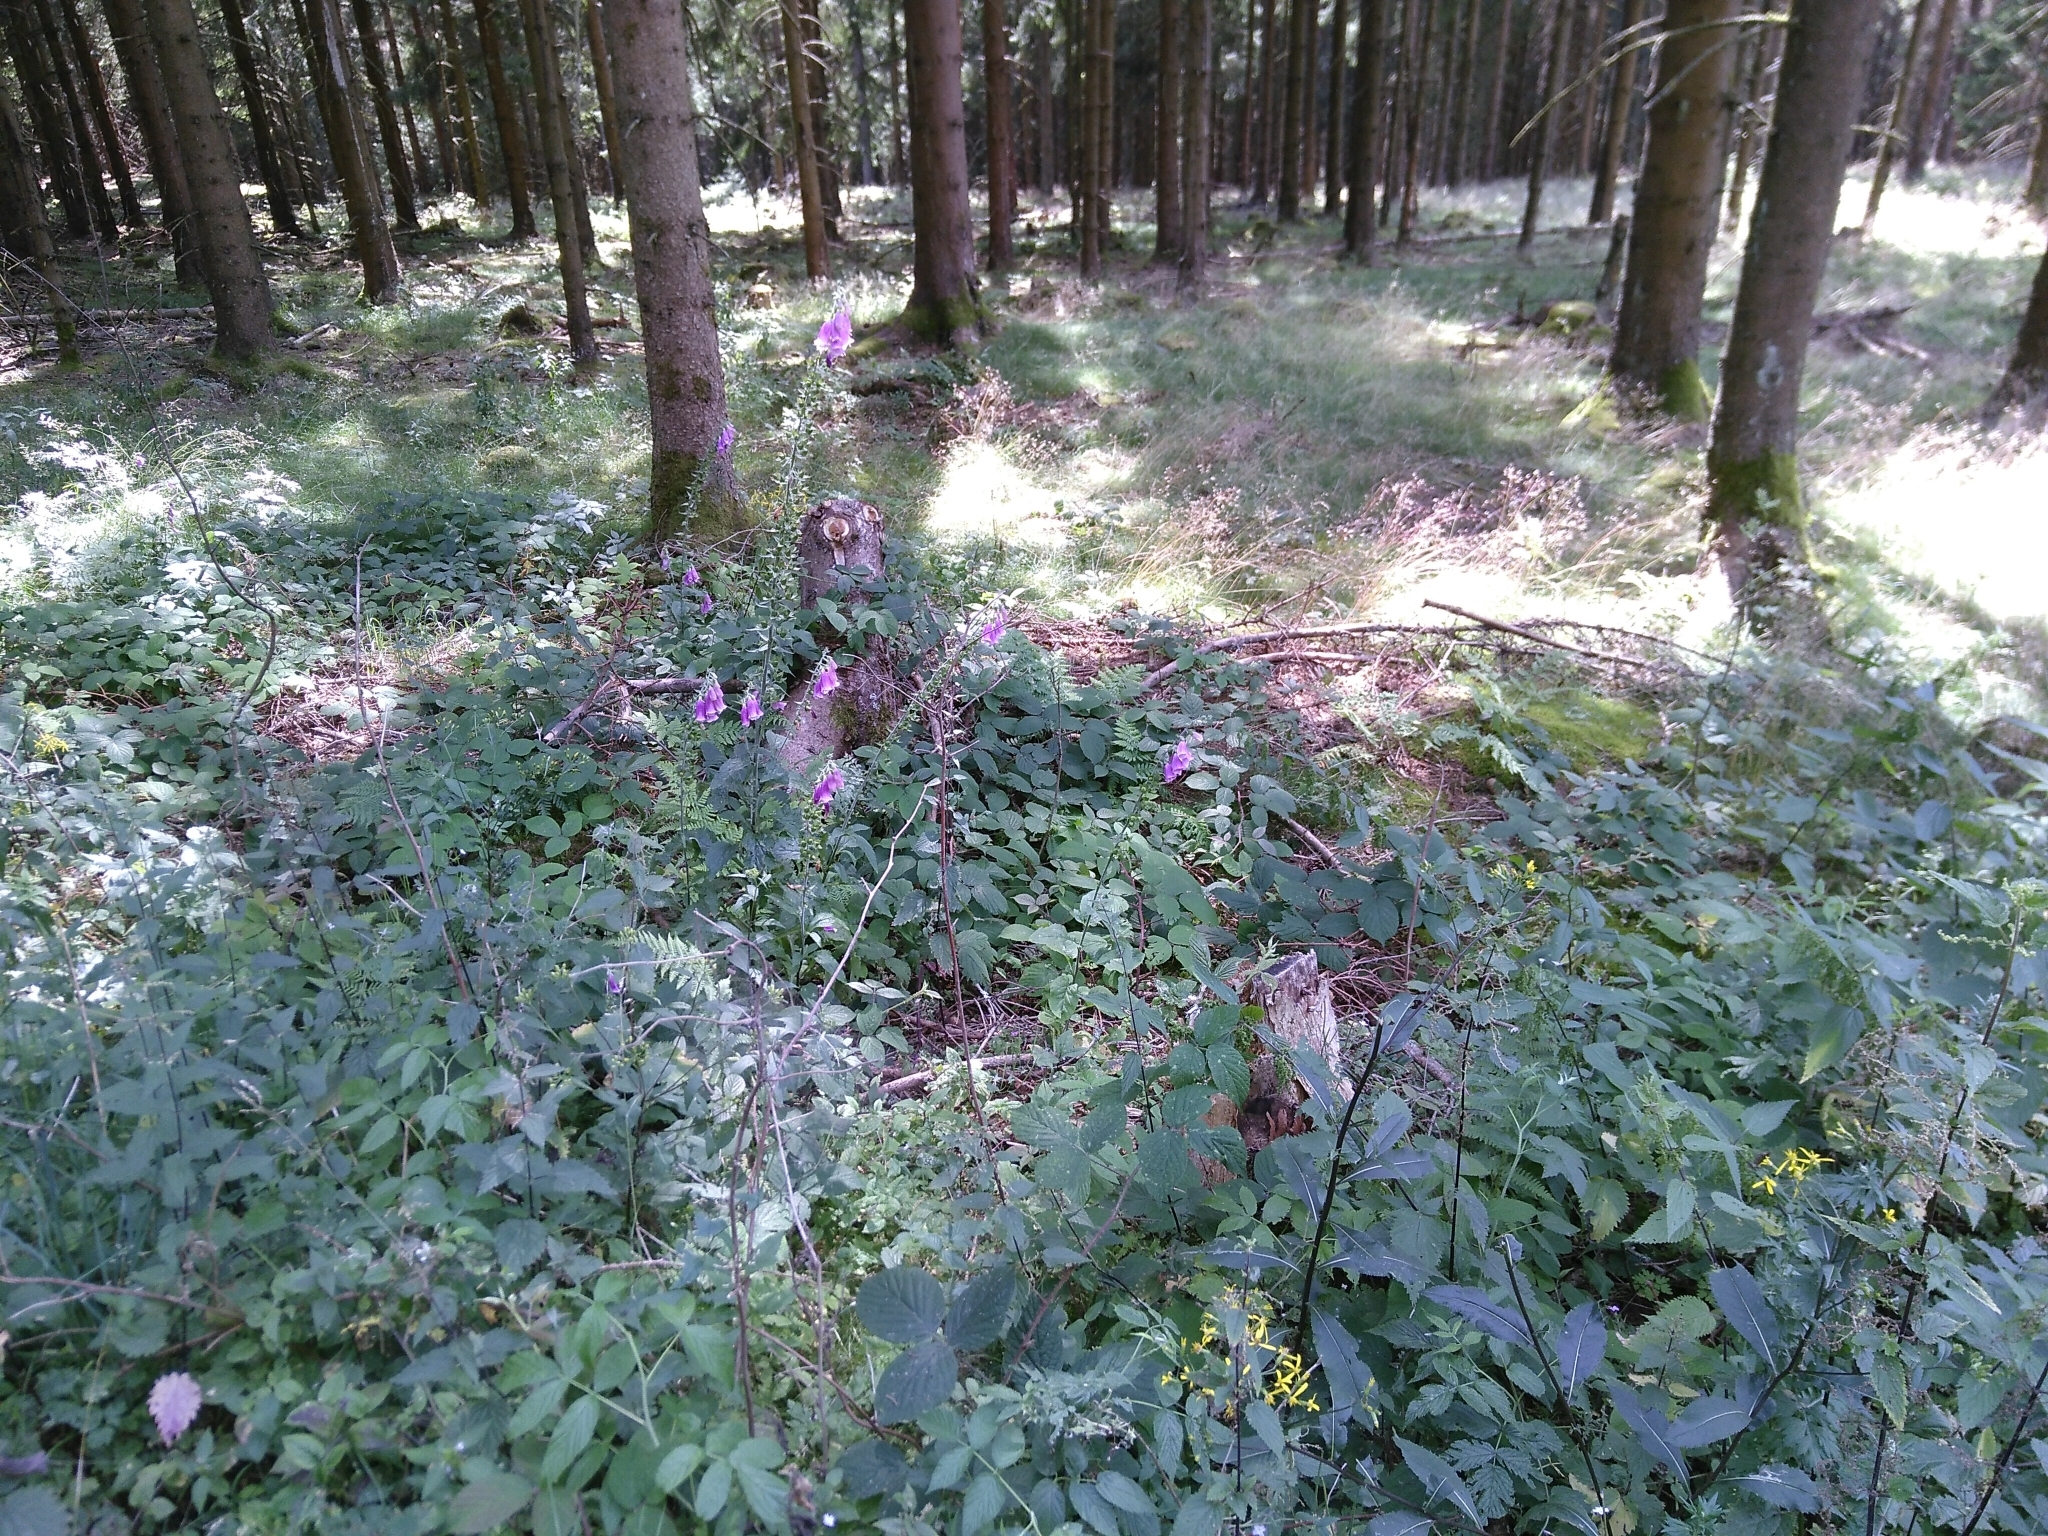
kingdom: Plantae
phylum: Tracheophyta
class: Magnoliopsida
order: Lamiales
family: Plantaginaceae
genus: Digitalis
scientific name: Digitalis purpurea
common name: Foxglove
